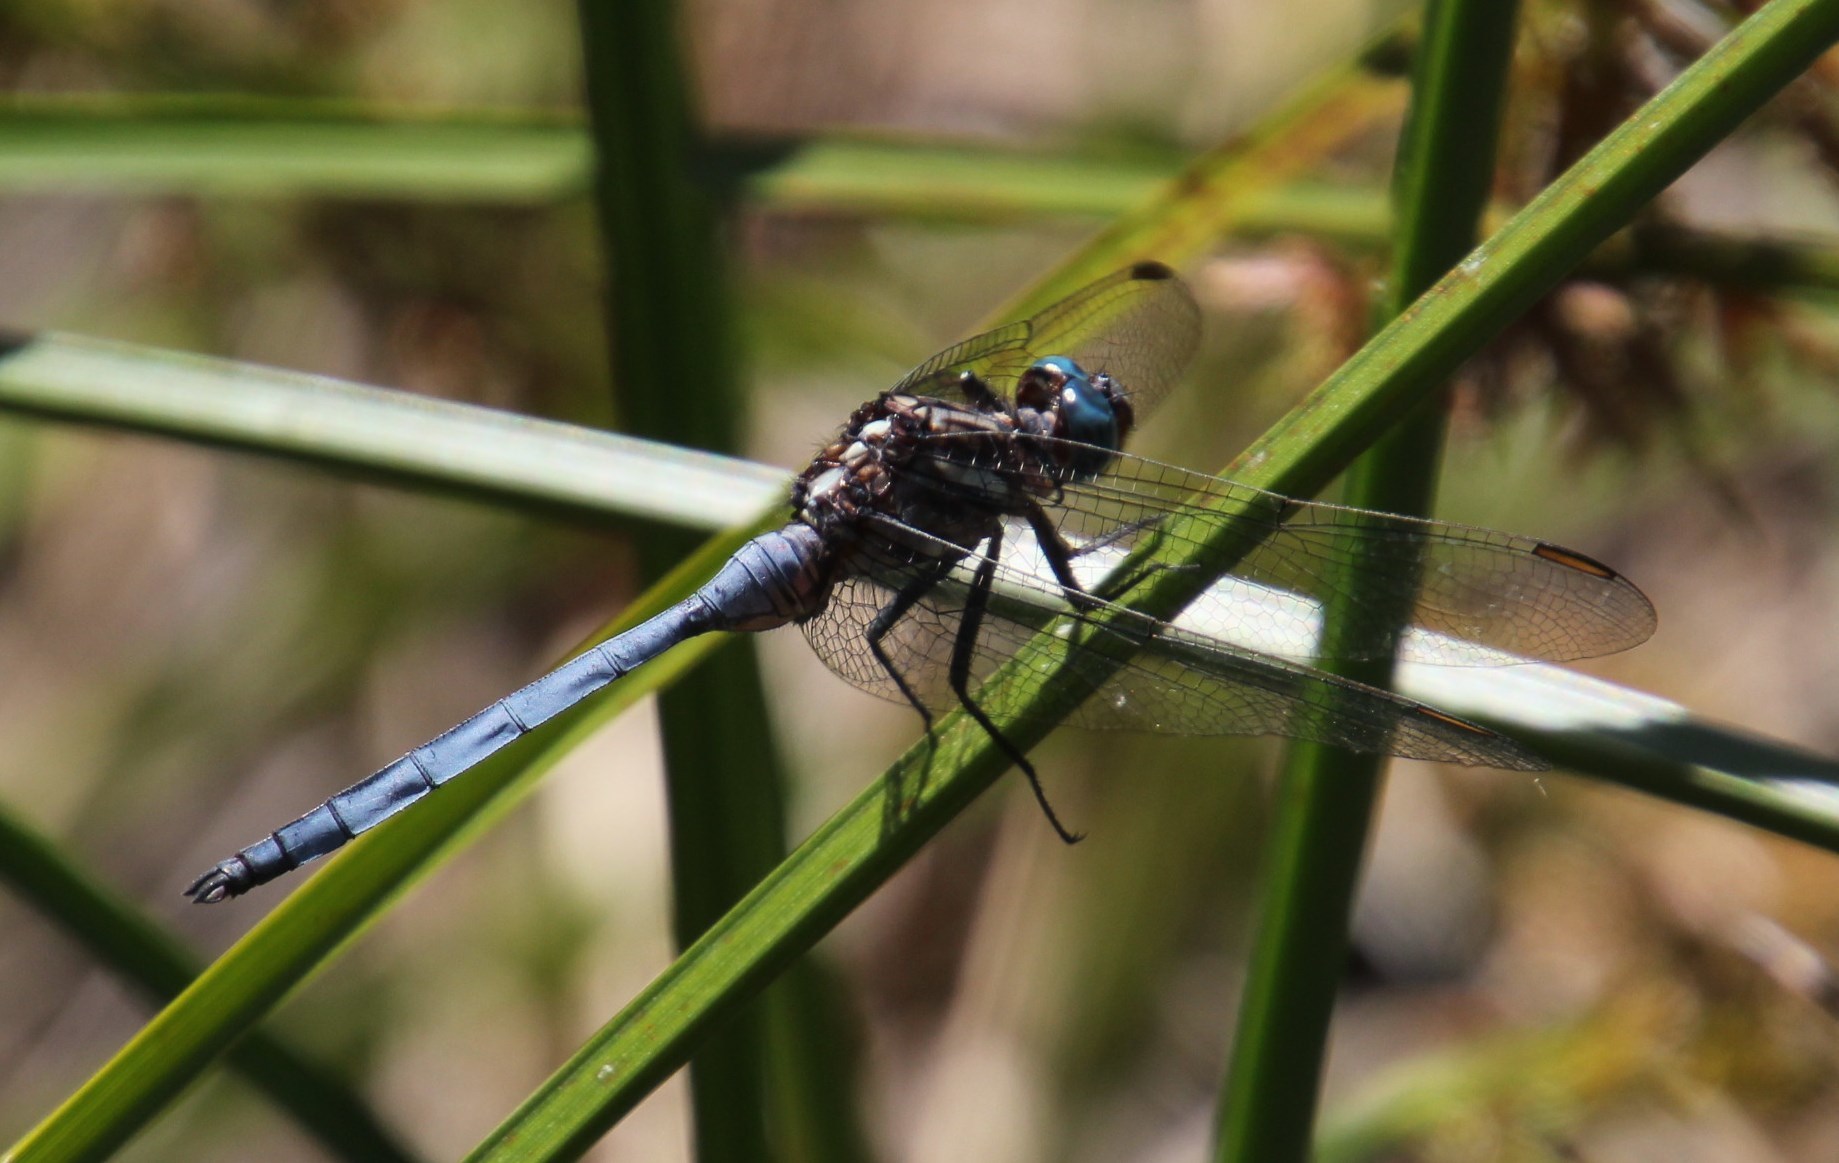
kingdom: Animalia
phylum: Arthropoda
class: Insecta
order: Odonata
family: Libellulidae
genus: Orthetrum
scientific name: Orthetrum julia
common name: Julia skimmer
